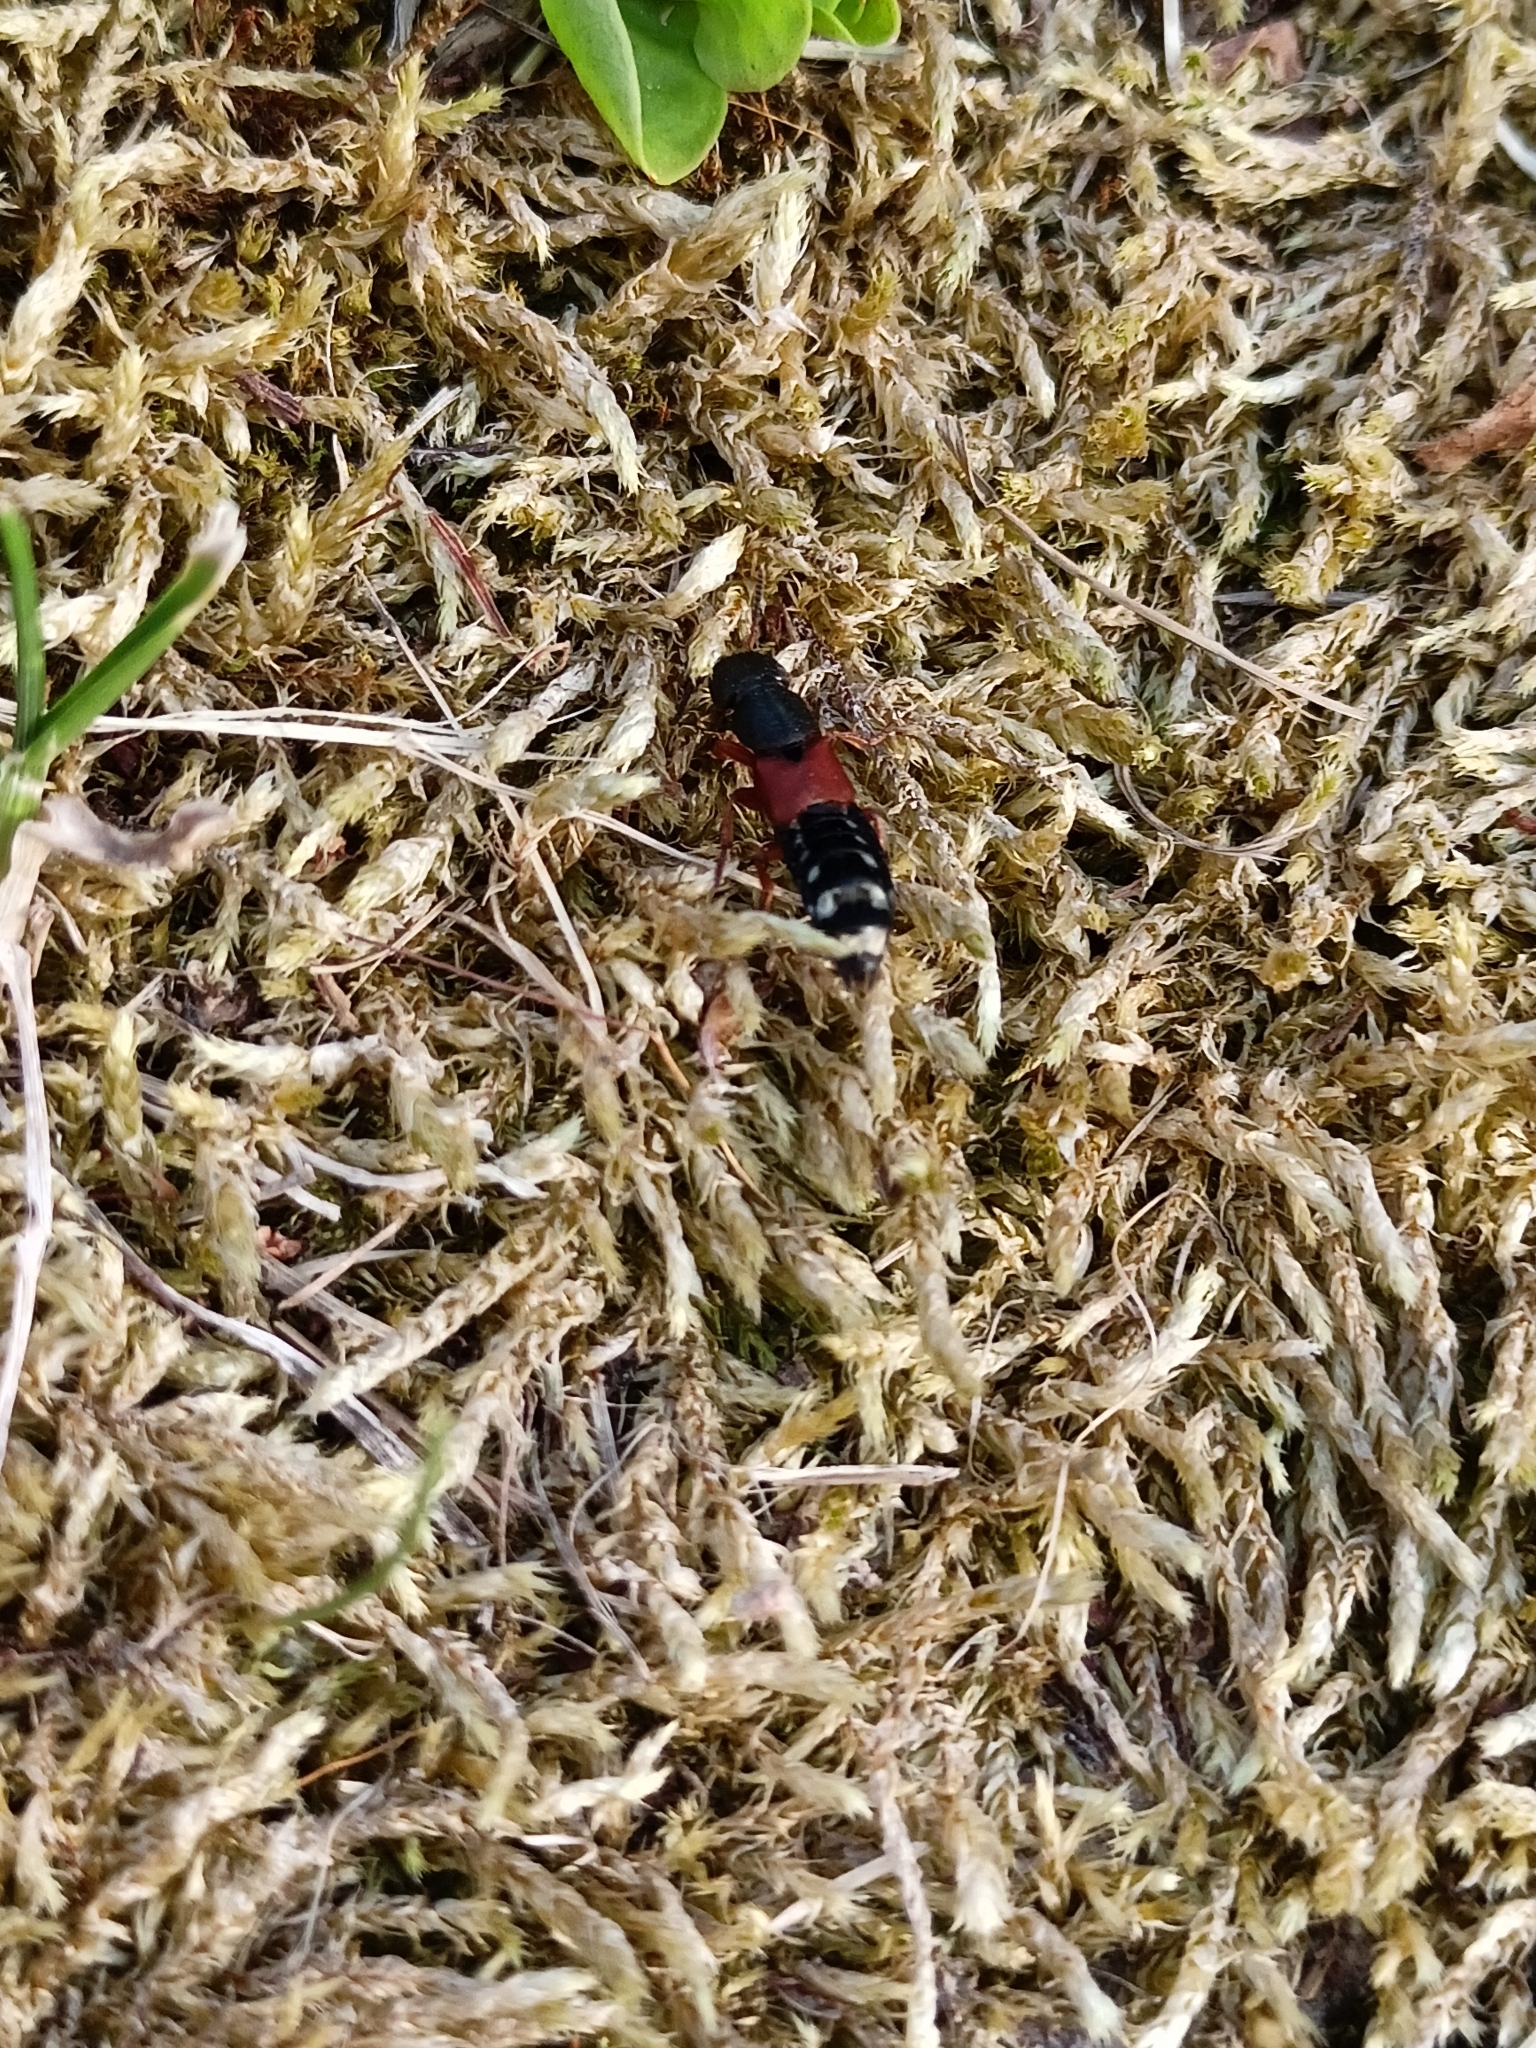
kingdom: Animalia
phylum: Arthropoda
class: Insecta
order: Coleoptera
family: Staphylinidae
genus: Platydracus
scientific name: Platydracus stercorarius
